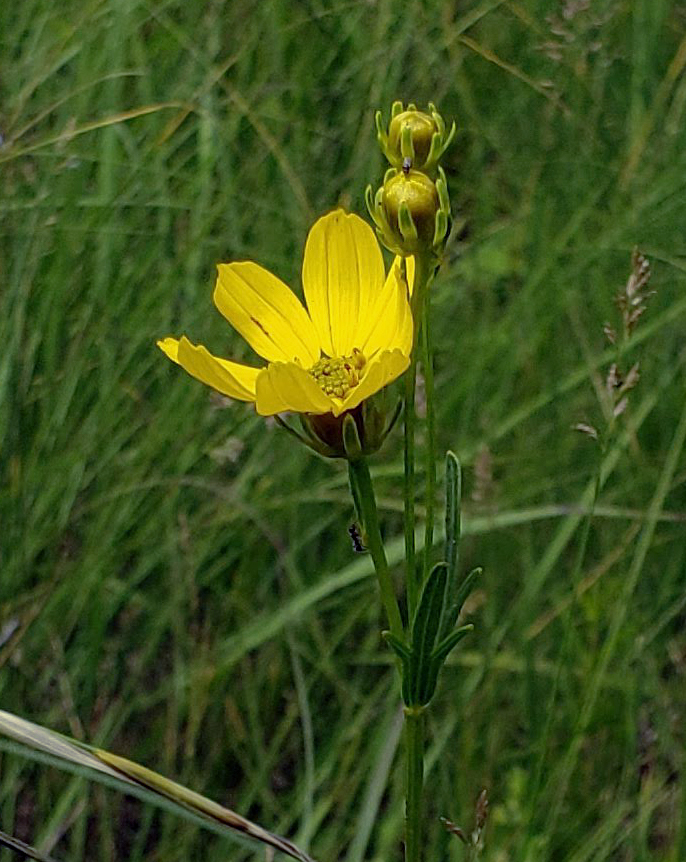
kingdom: Plantae
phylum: Tracheophyta
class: Magnoliopsida
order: Asterales
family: Asteraceae
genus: Coreopsis
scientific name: Coreopsis palmata
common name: Prairie coreopsis
